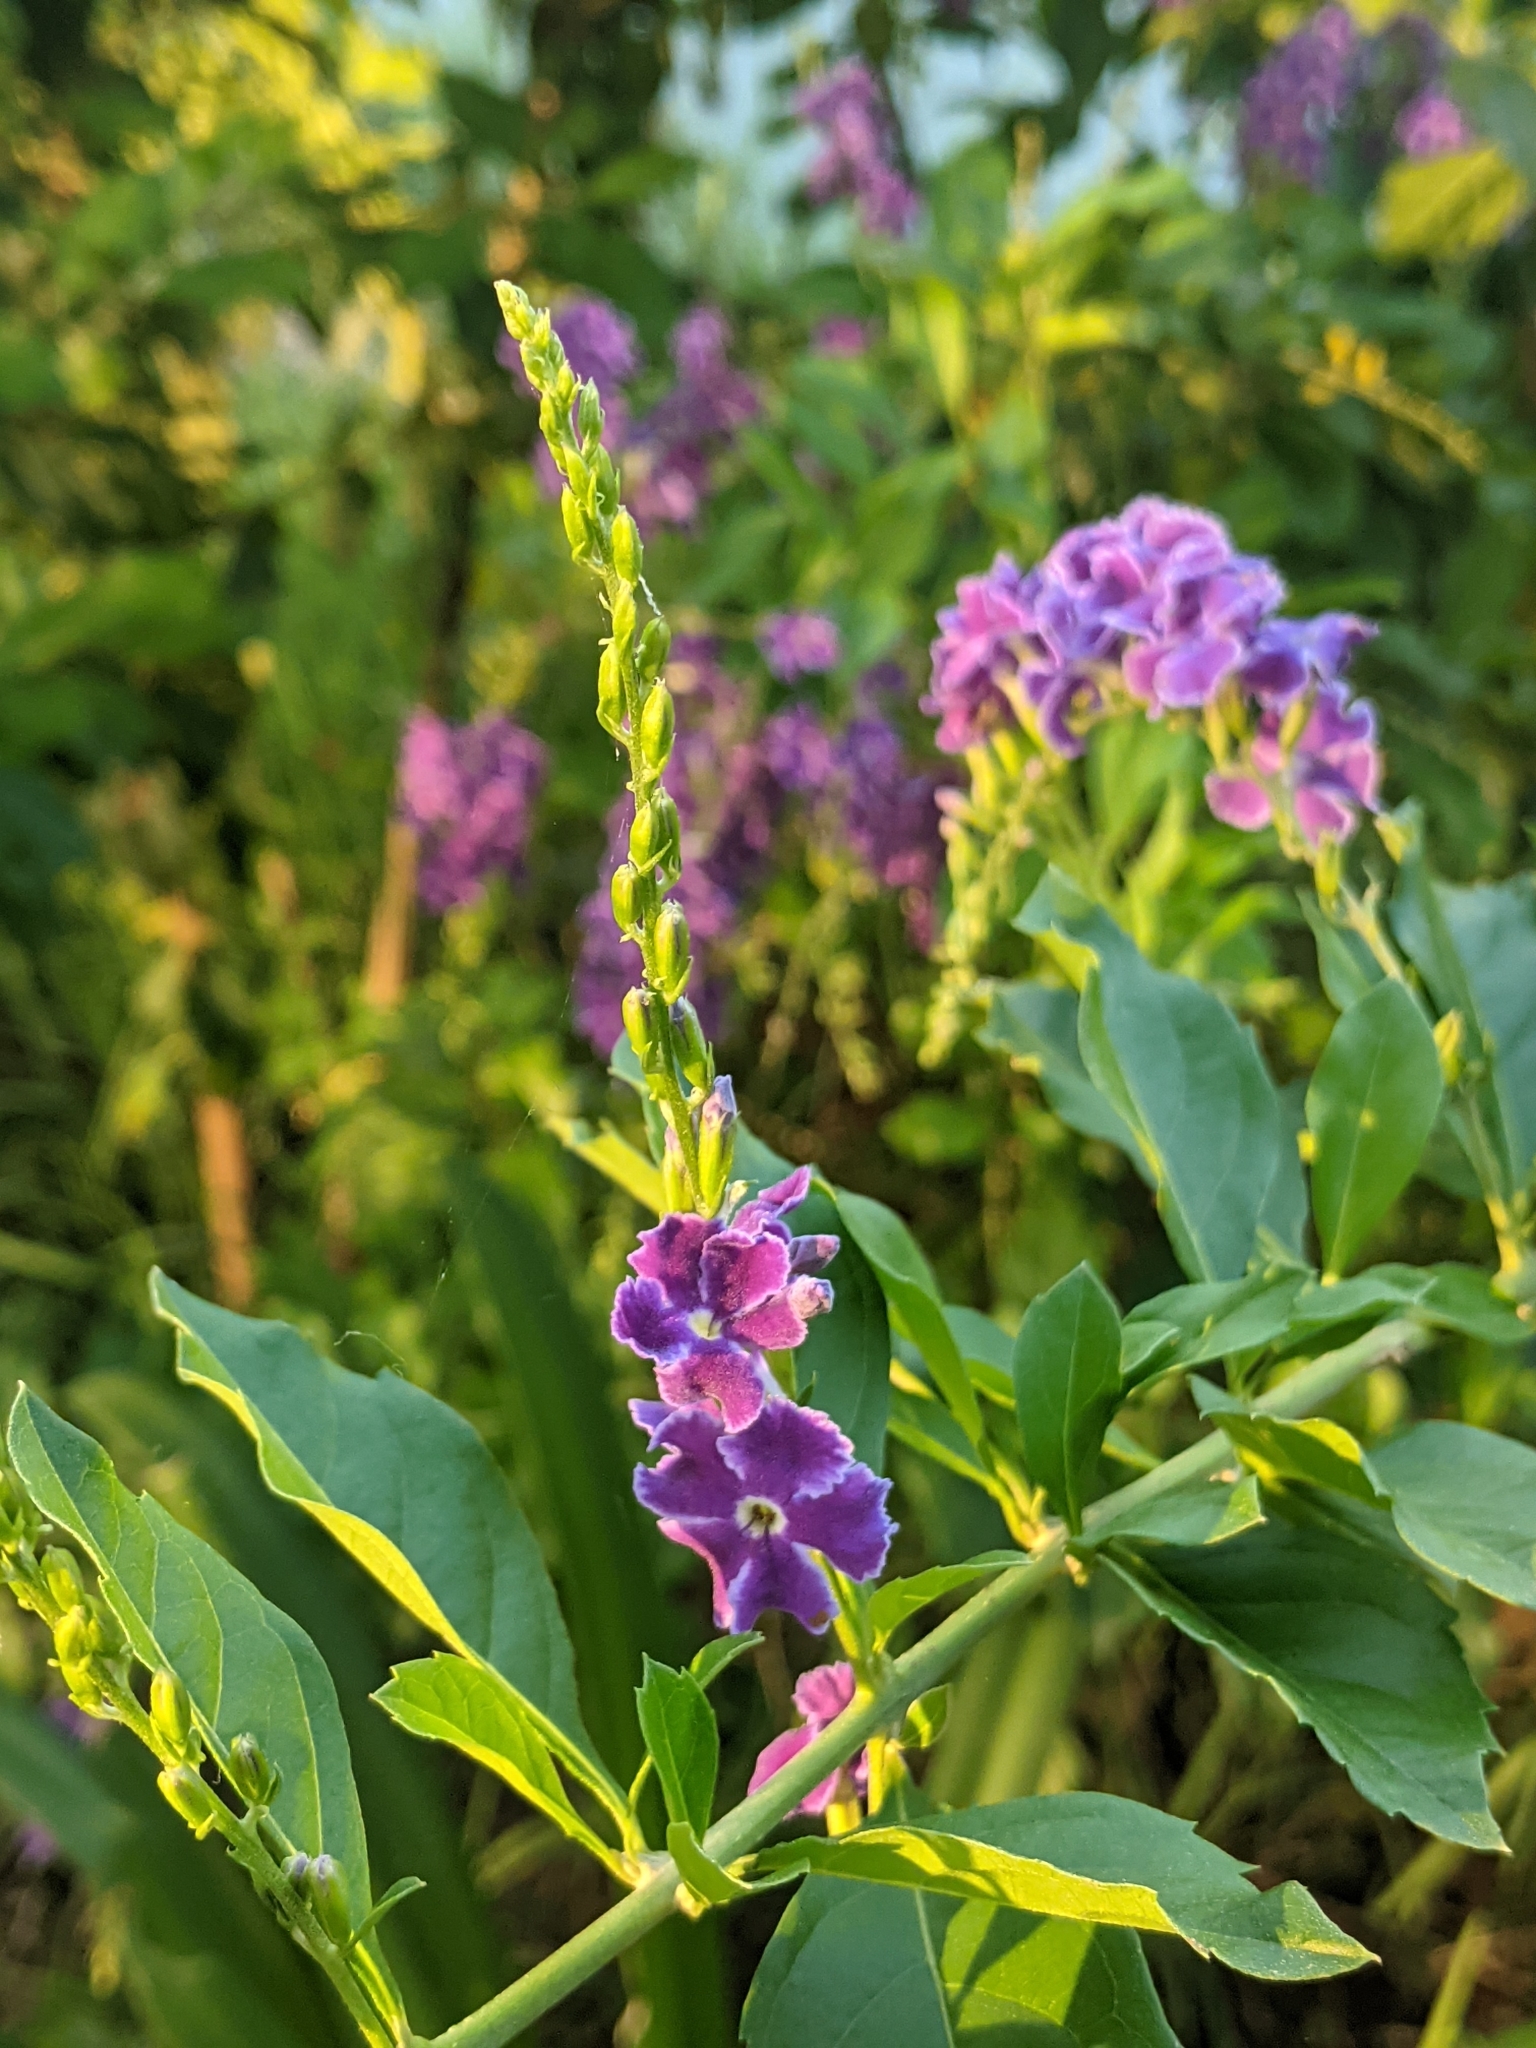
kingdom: Plantae
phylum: Tracheophyta
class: Magnoliopsida
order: Lamiales
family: Verbenaceae
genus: Duranta
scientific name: Duranta erecta
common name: Golden dewdrops
